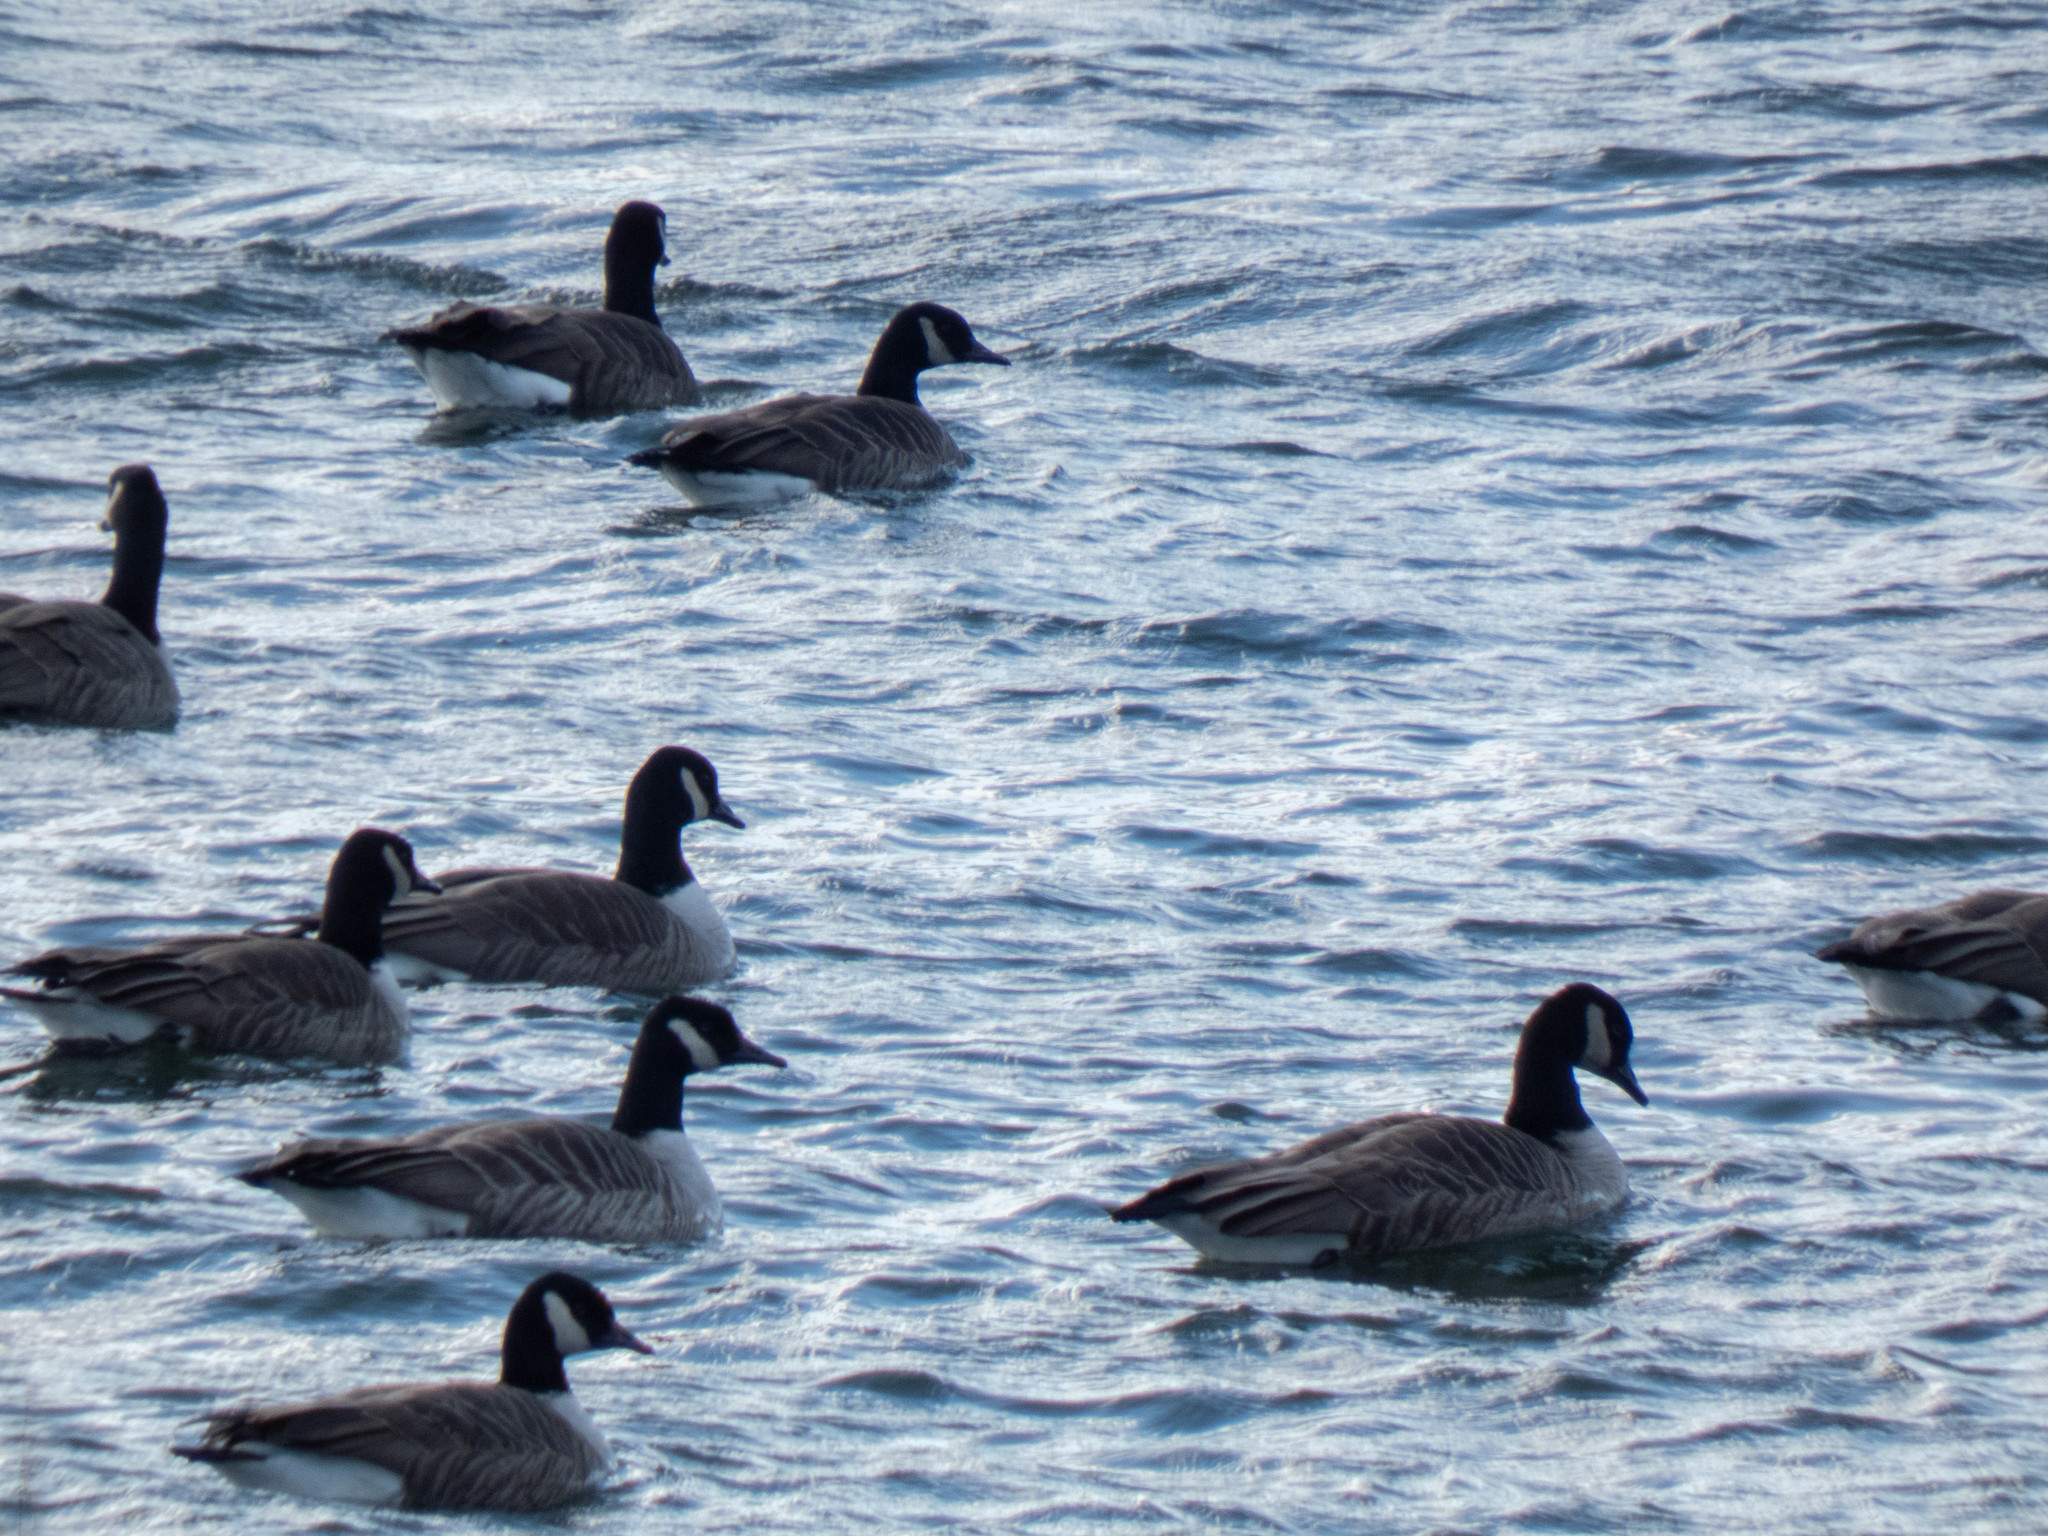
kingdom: Animalia
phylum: Chordata
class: Aves
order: Anseriformes
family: Anatidae
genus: Branta
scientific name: Branta canadensis
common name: Canada goose
